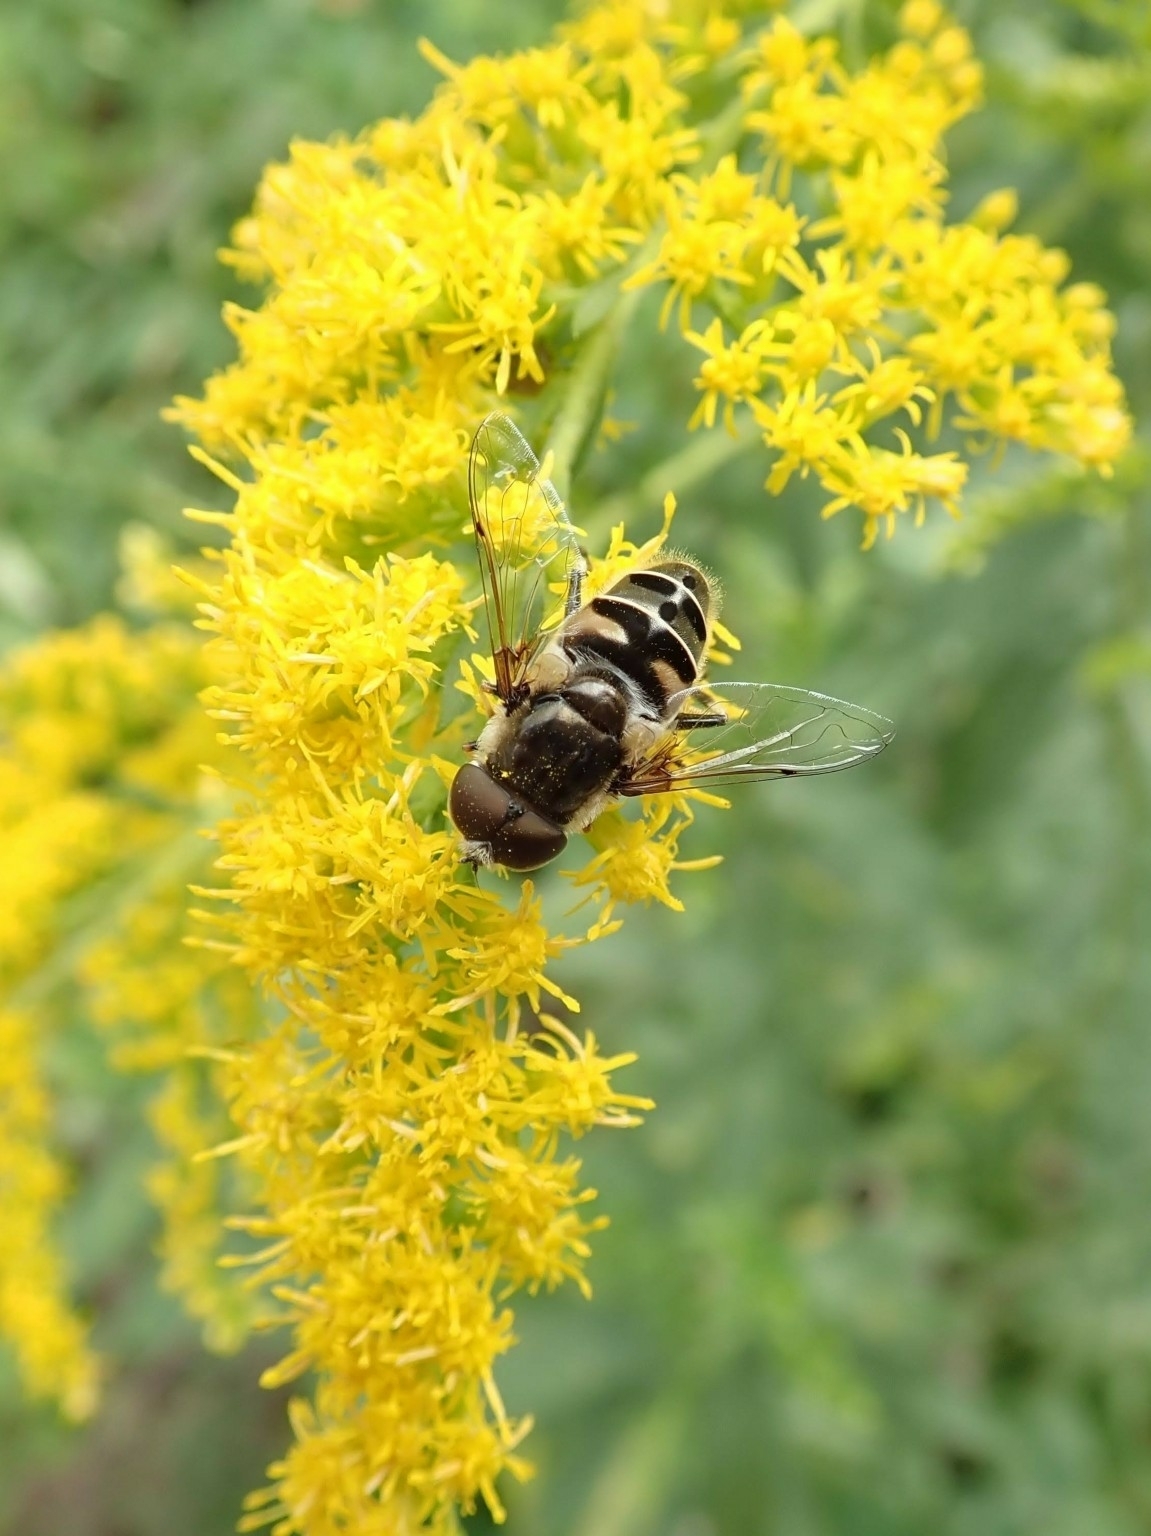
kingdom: Animalia
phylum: Arthropoda
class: Insecta
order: Diptera
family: Syrphidae
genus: Eristalis
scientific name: Eristalis dimidiata
